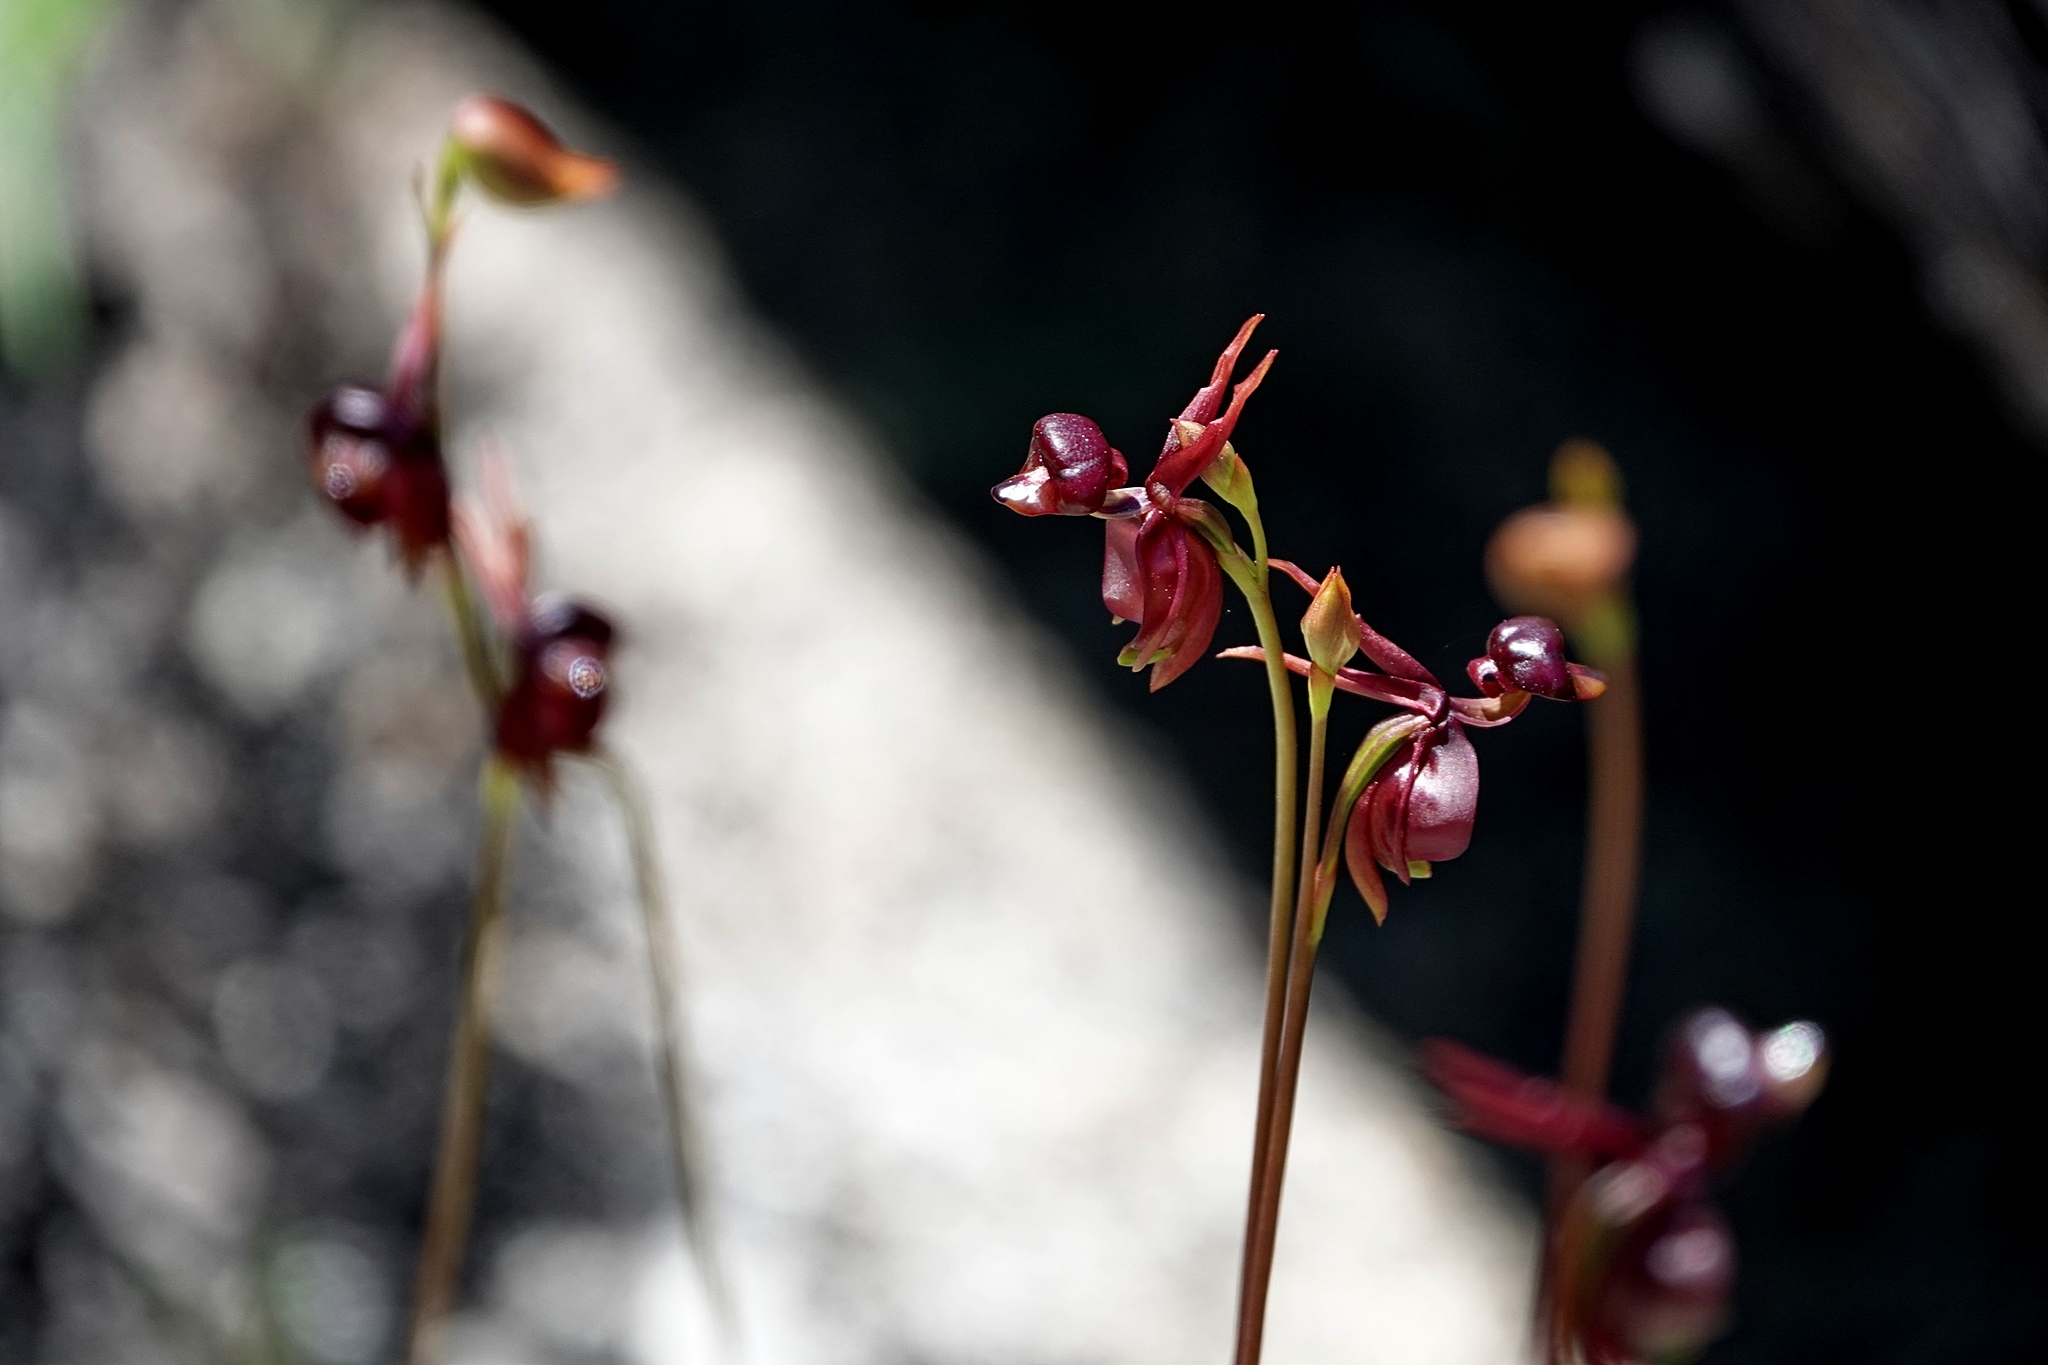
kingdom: Plantae
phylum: Tracheophyta
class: Liliopsida
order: Asparagales
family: Orchidaceae
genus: Caleana
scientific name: Caleana major
